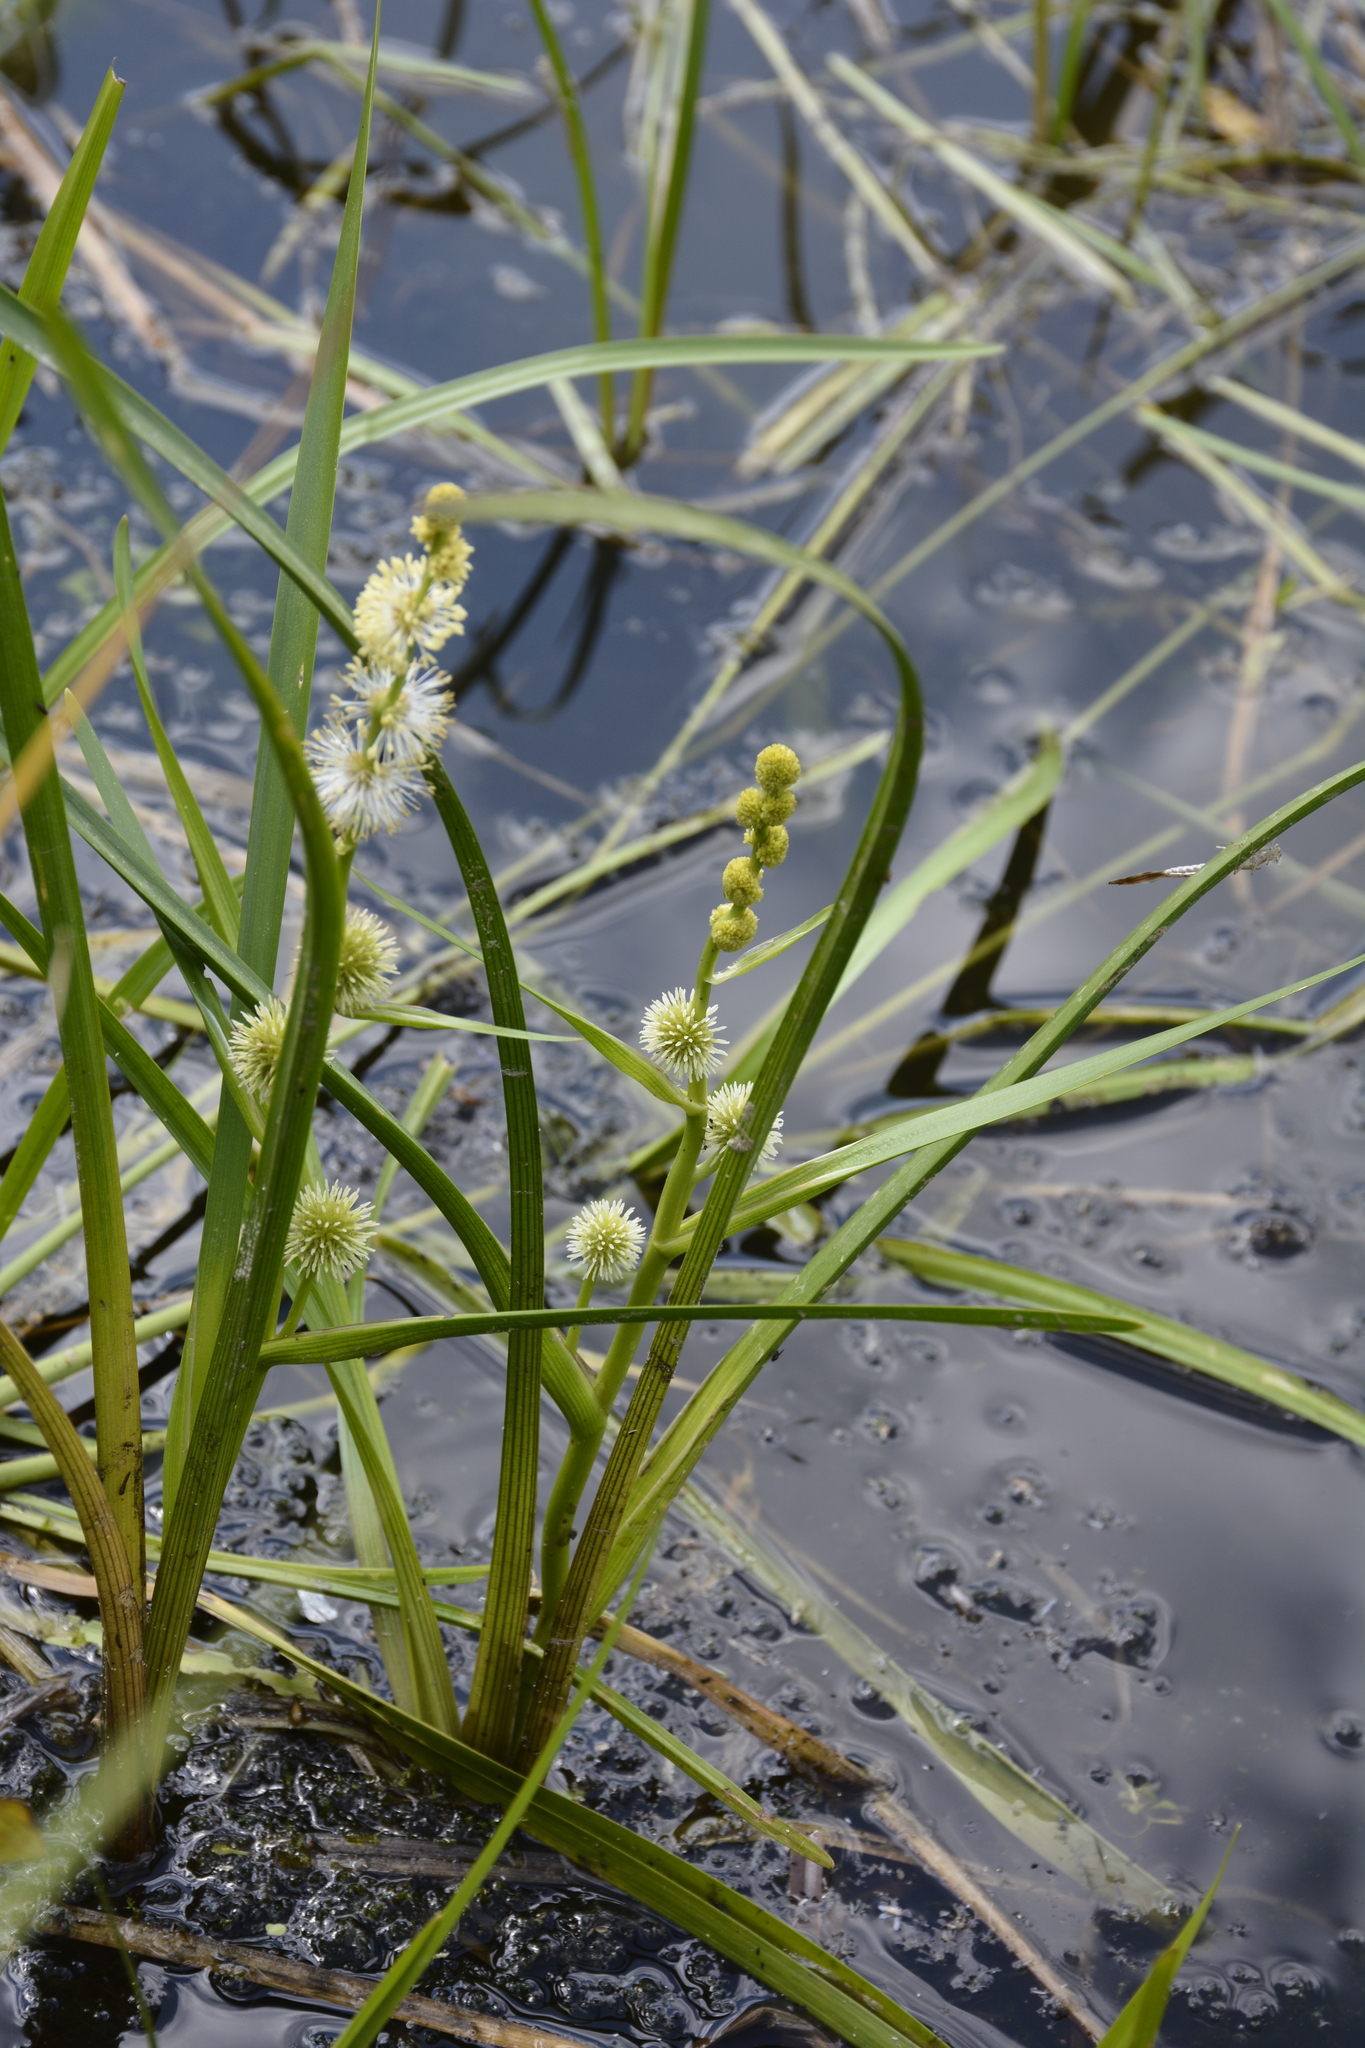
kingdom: Plantae
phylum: Tracheophyta
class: Liliopsida
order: Poales
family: Typhaceae
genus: Sparganium
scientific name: Sparganium emersum
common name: Unbranched bur-reed
